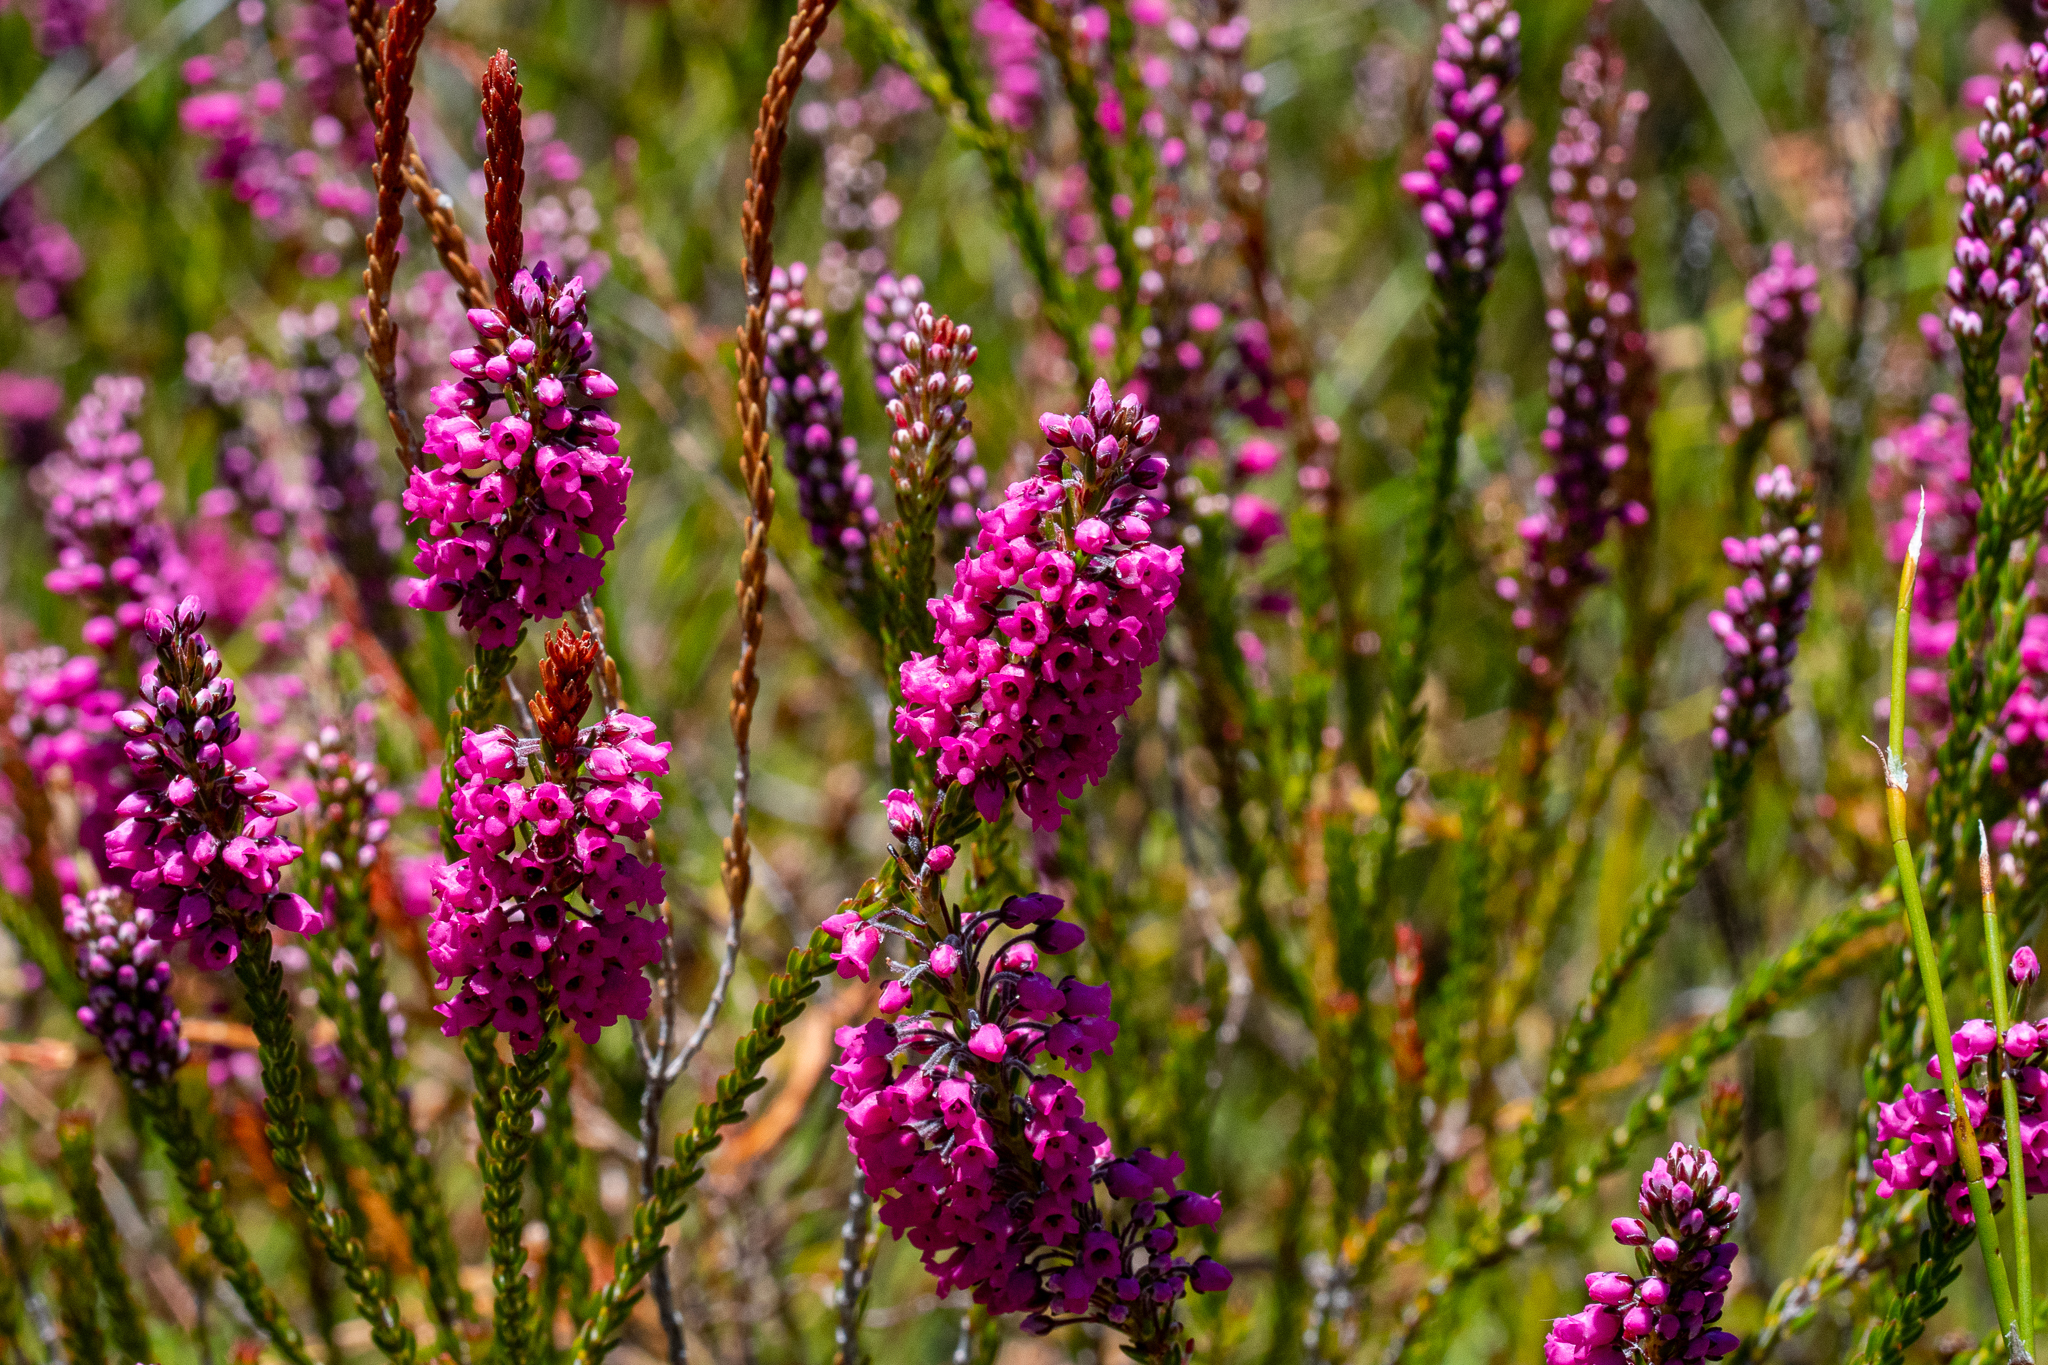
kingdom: Plantae
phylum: Tracheophyta
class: Magnoliopsida
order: Ericales
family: Ericaceae
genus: Erica
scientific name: Erica pulchella
